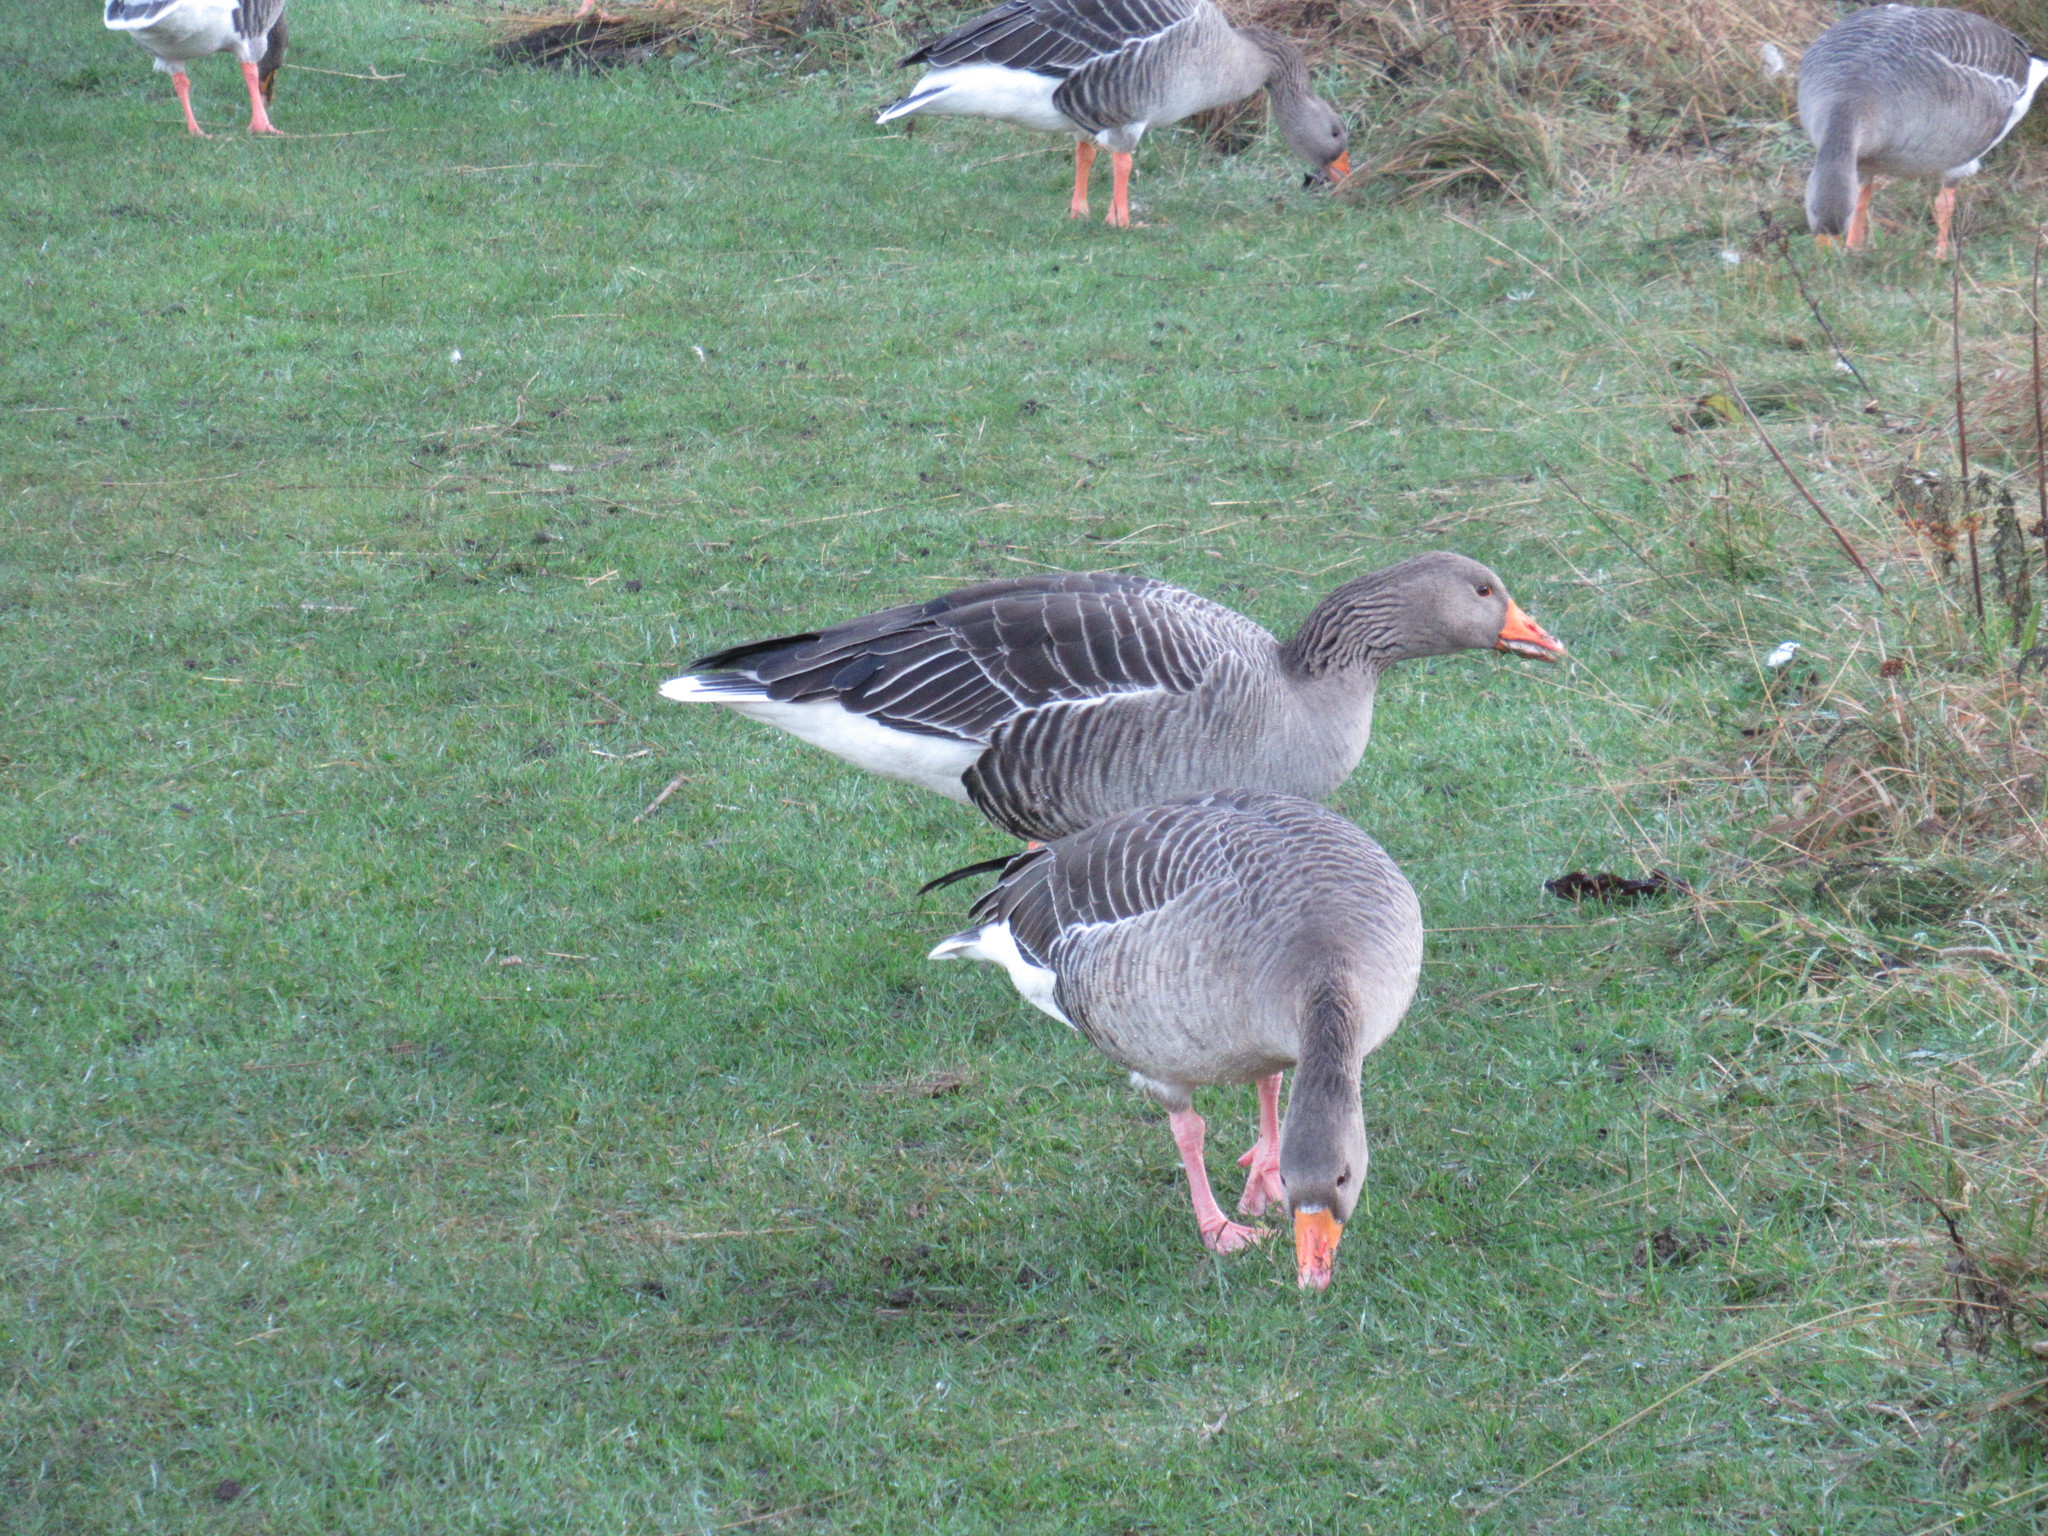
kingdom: Animalia
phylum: Chordata
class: Aves
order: Anseriformes
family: Anatidae
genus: Anser
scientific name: Anser anser
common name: Greylag goose
